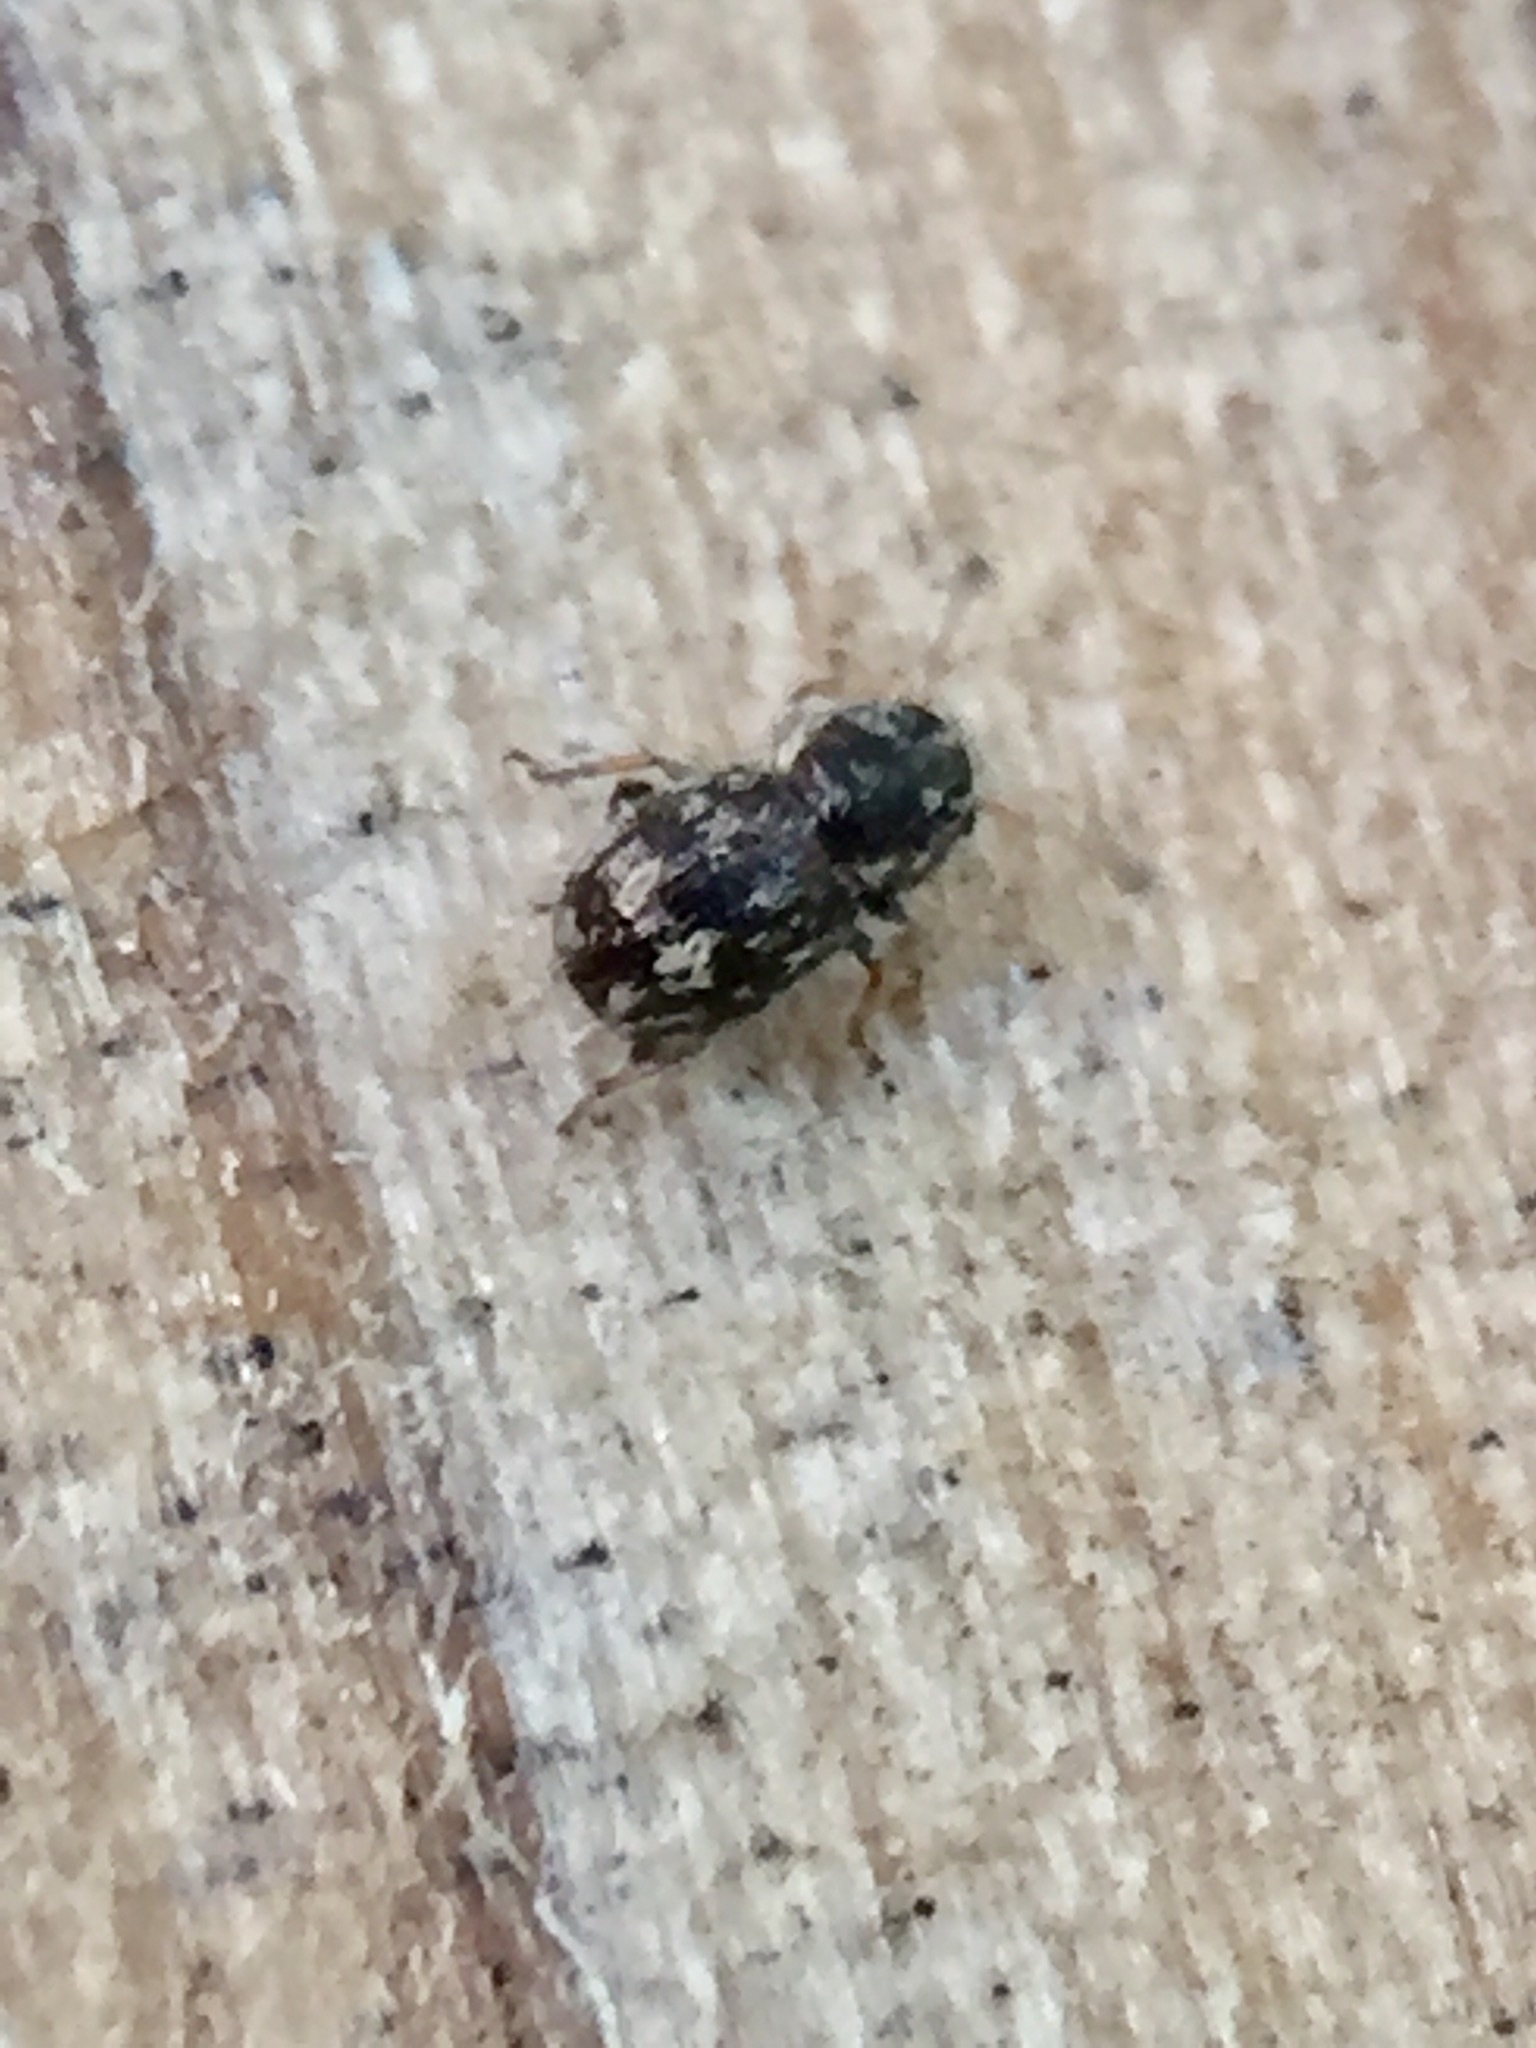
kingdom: Animalia
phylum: Arthropoda
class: Insecta
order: Coleoptera
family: Anthribidae
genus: Dasyanthribus
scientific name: Dasyanthribus purpureus
